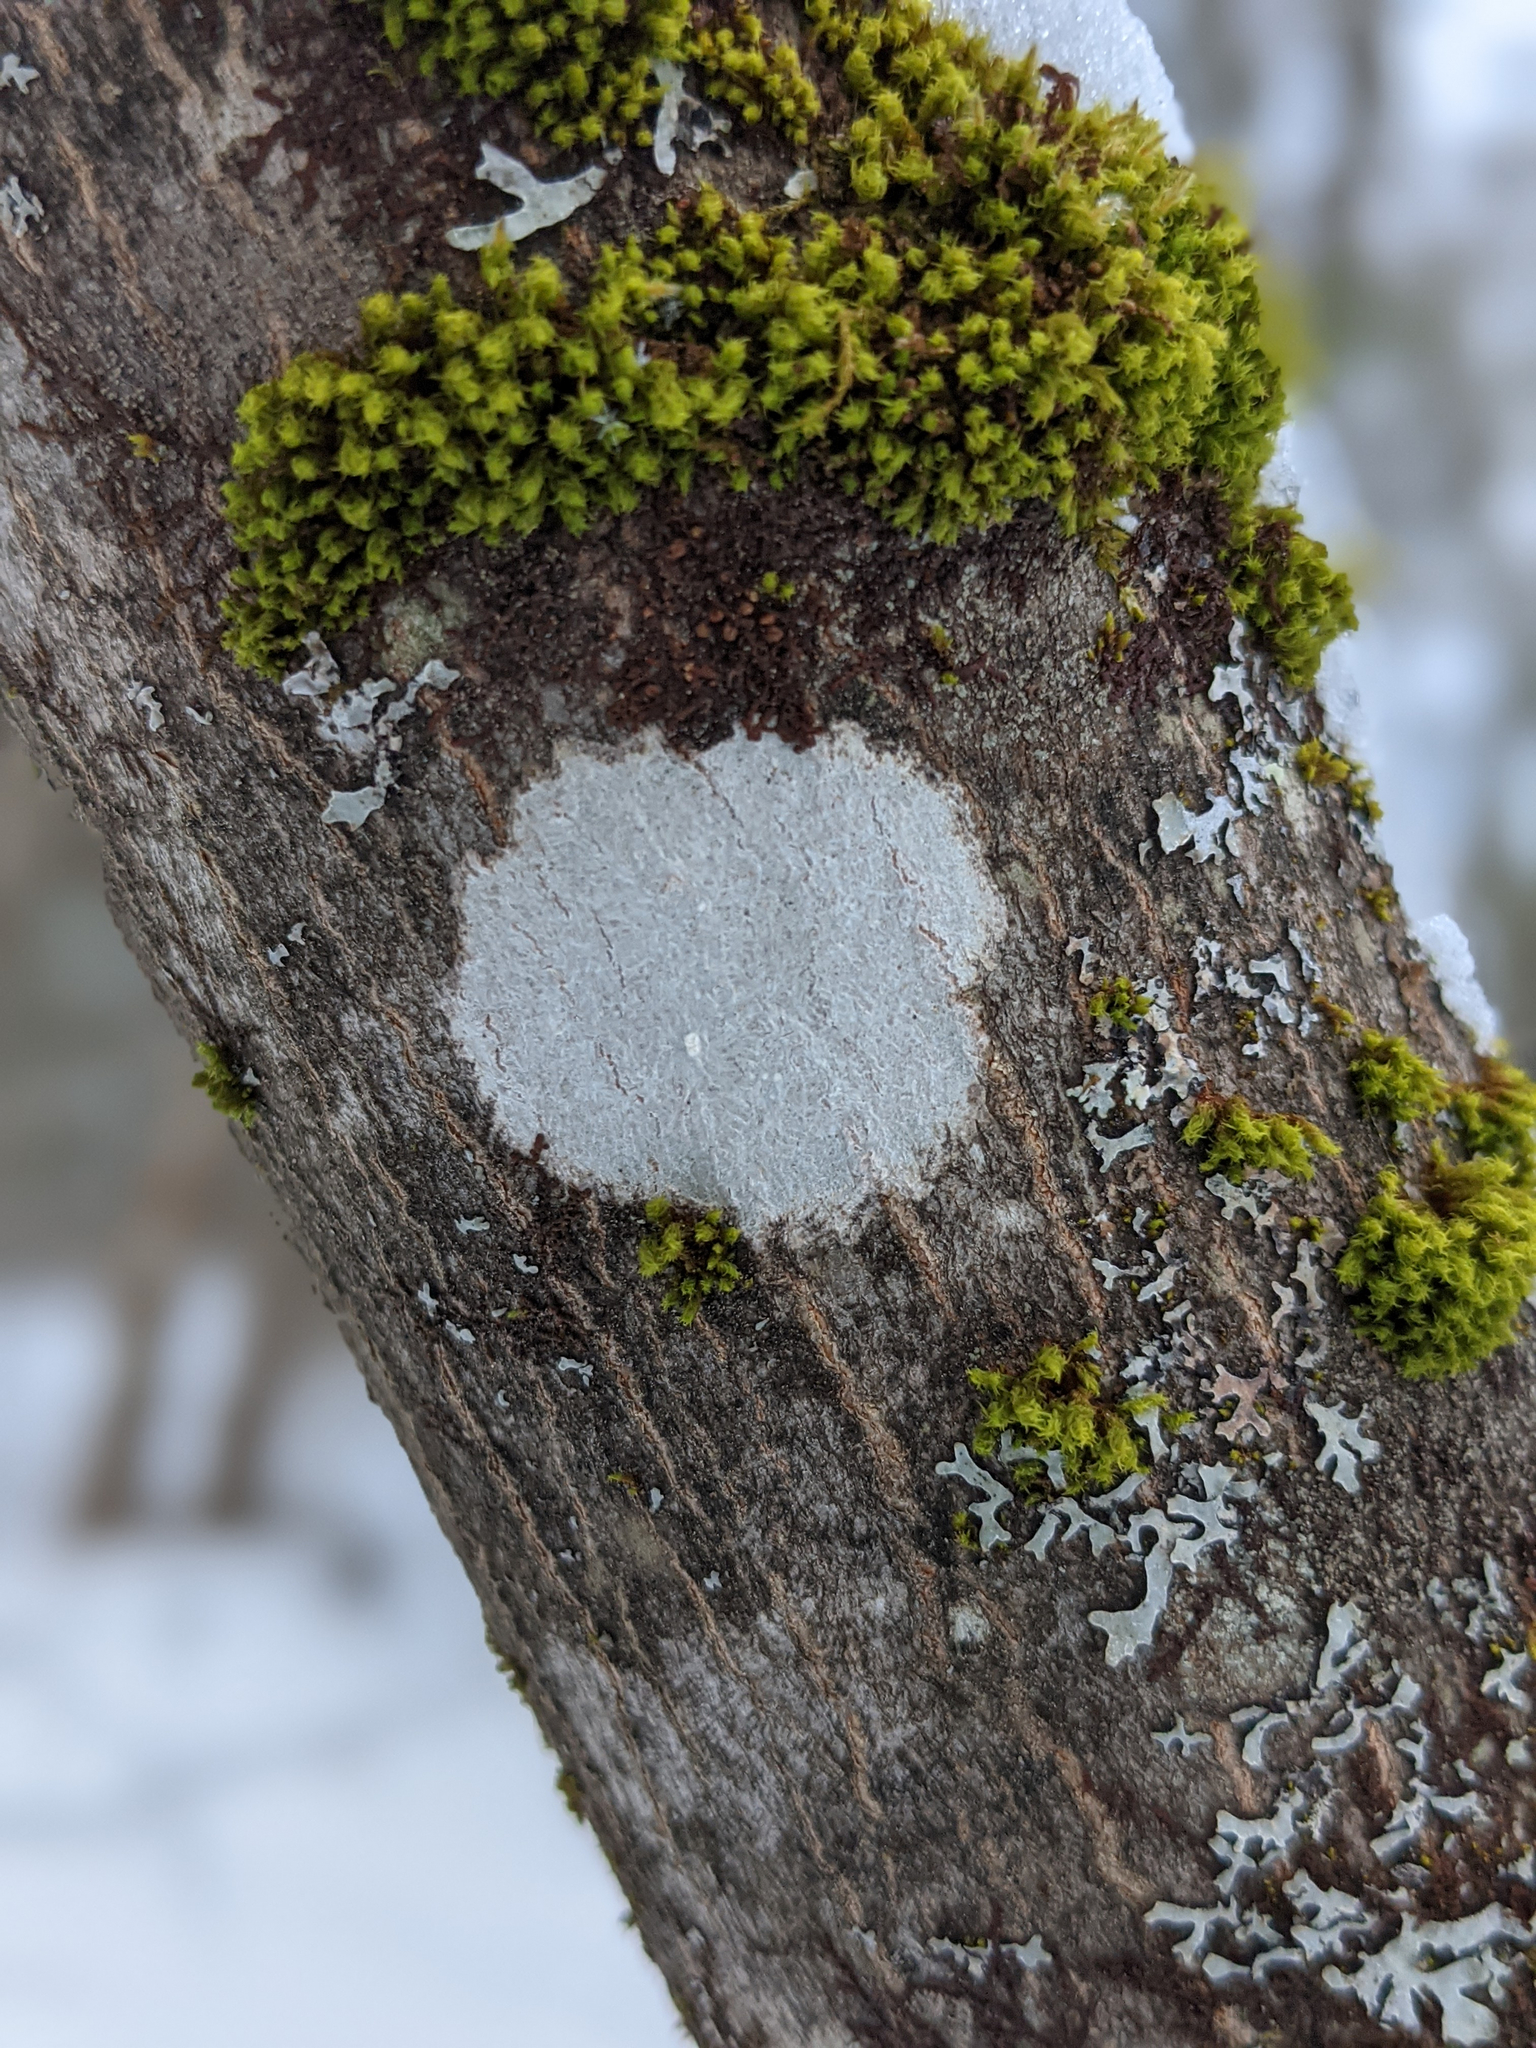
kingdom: Plantae
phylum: Bryophyta
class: Bryopsida
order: Orthotrichales
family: Orthotrichaceae
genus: Ulota
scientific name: Ulota crispa
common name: Crisped pincushion moss
